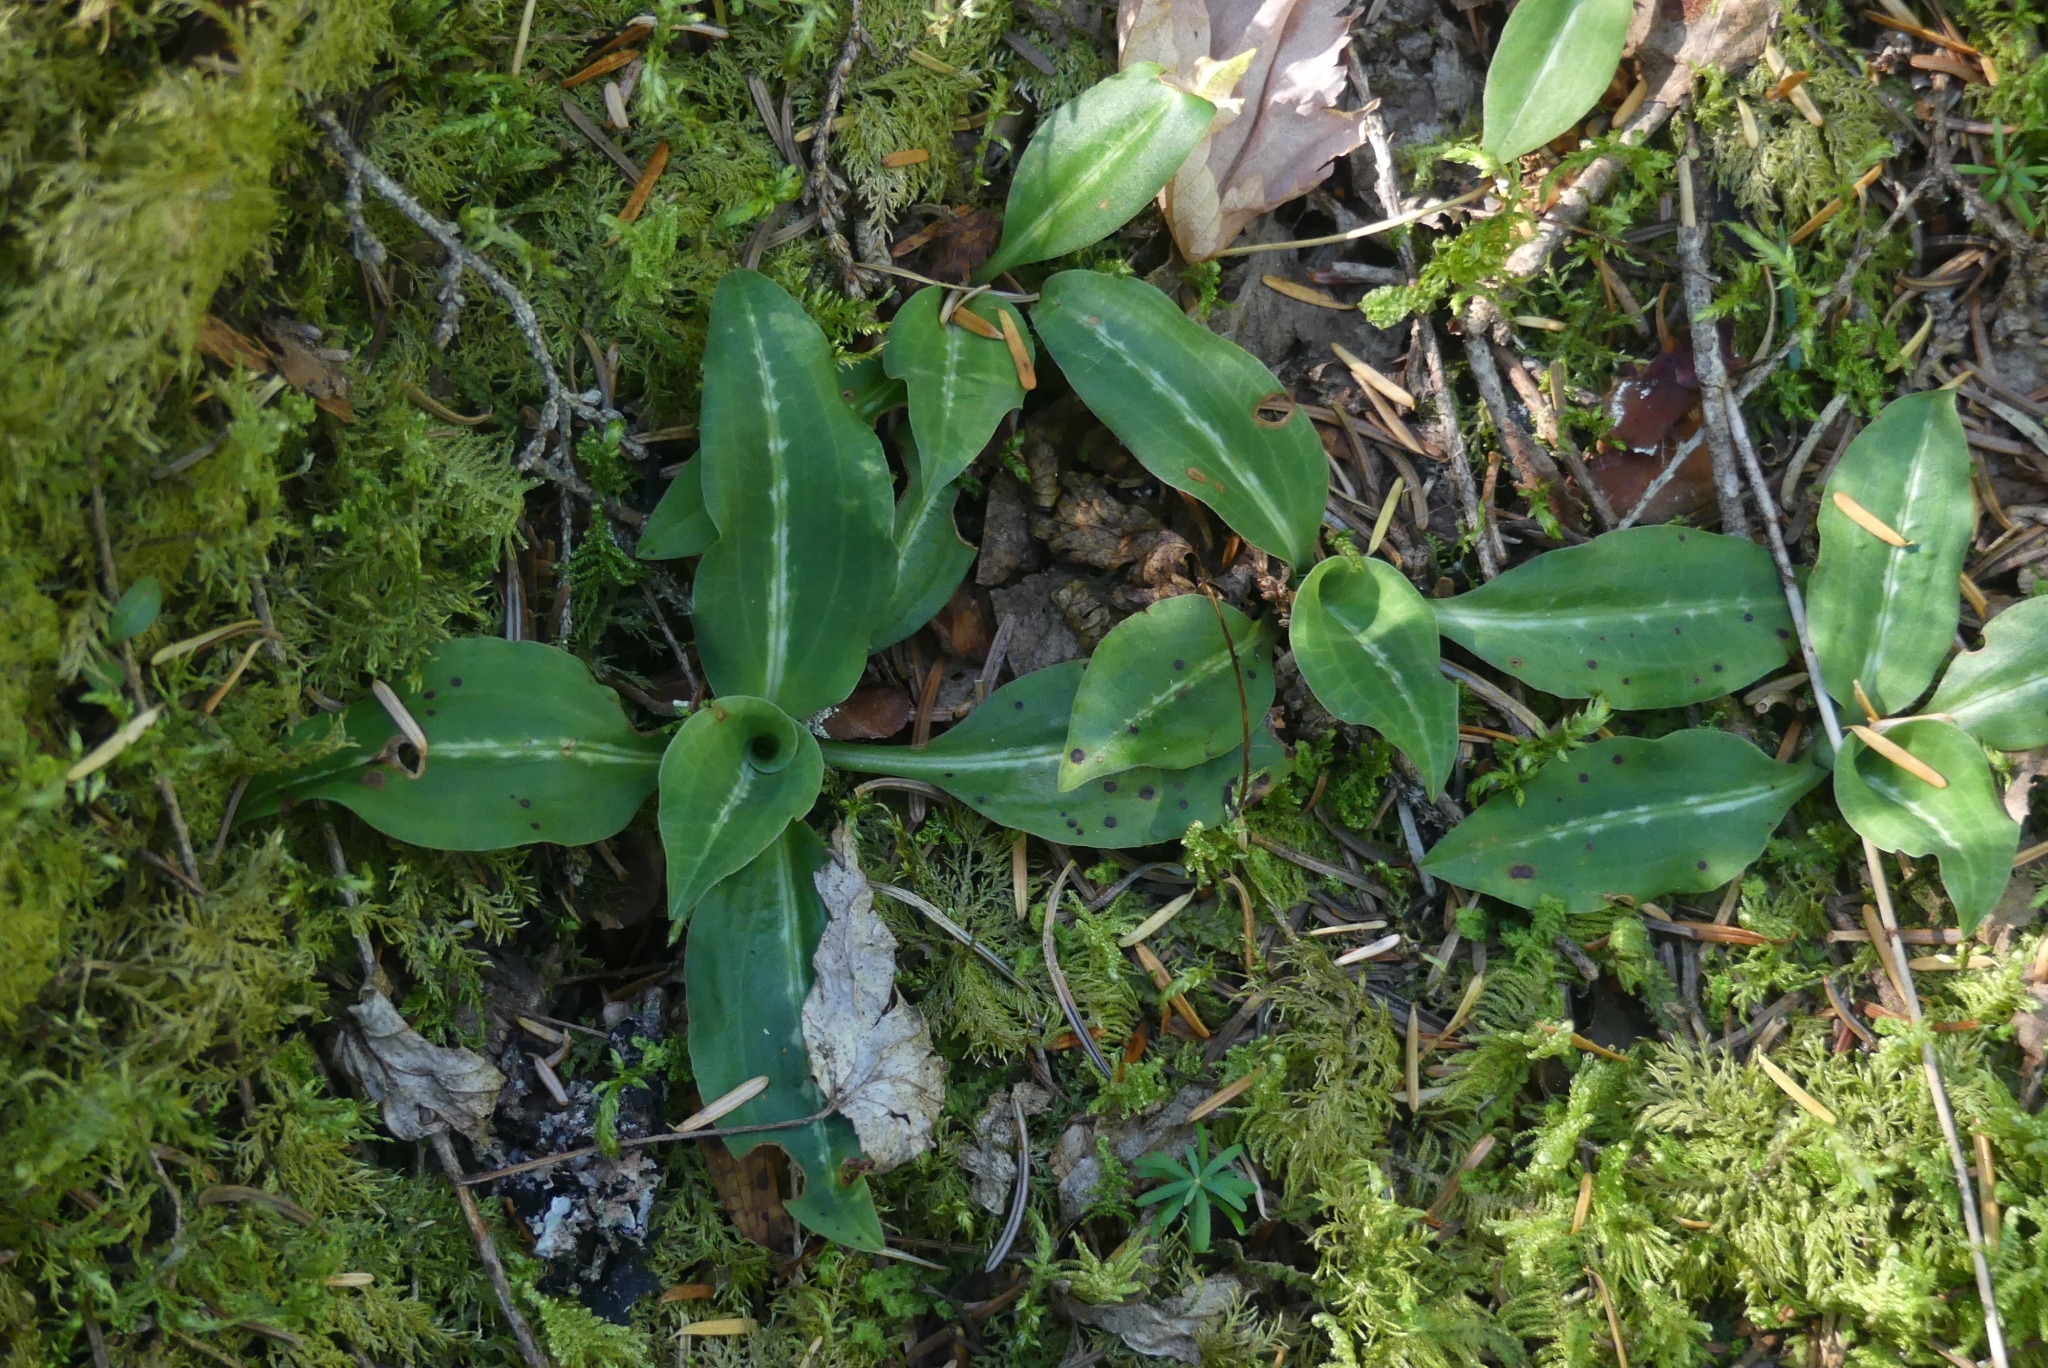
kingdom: Plantae
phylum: Tracheophyta
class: Liliopsida
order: Asparagales
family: Orchidaceae
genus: Goodyera
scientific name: Goodyera oblongifolia
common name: Giant rattlesnake-plantain
